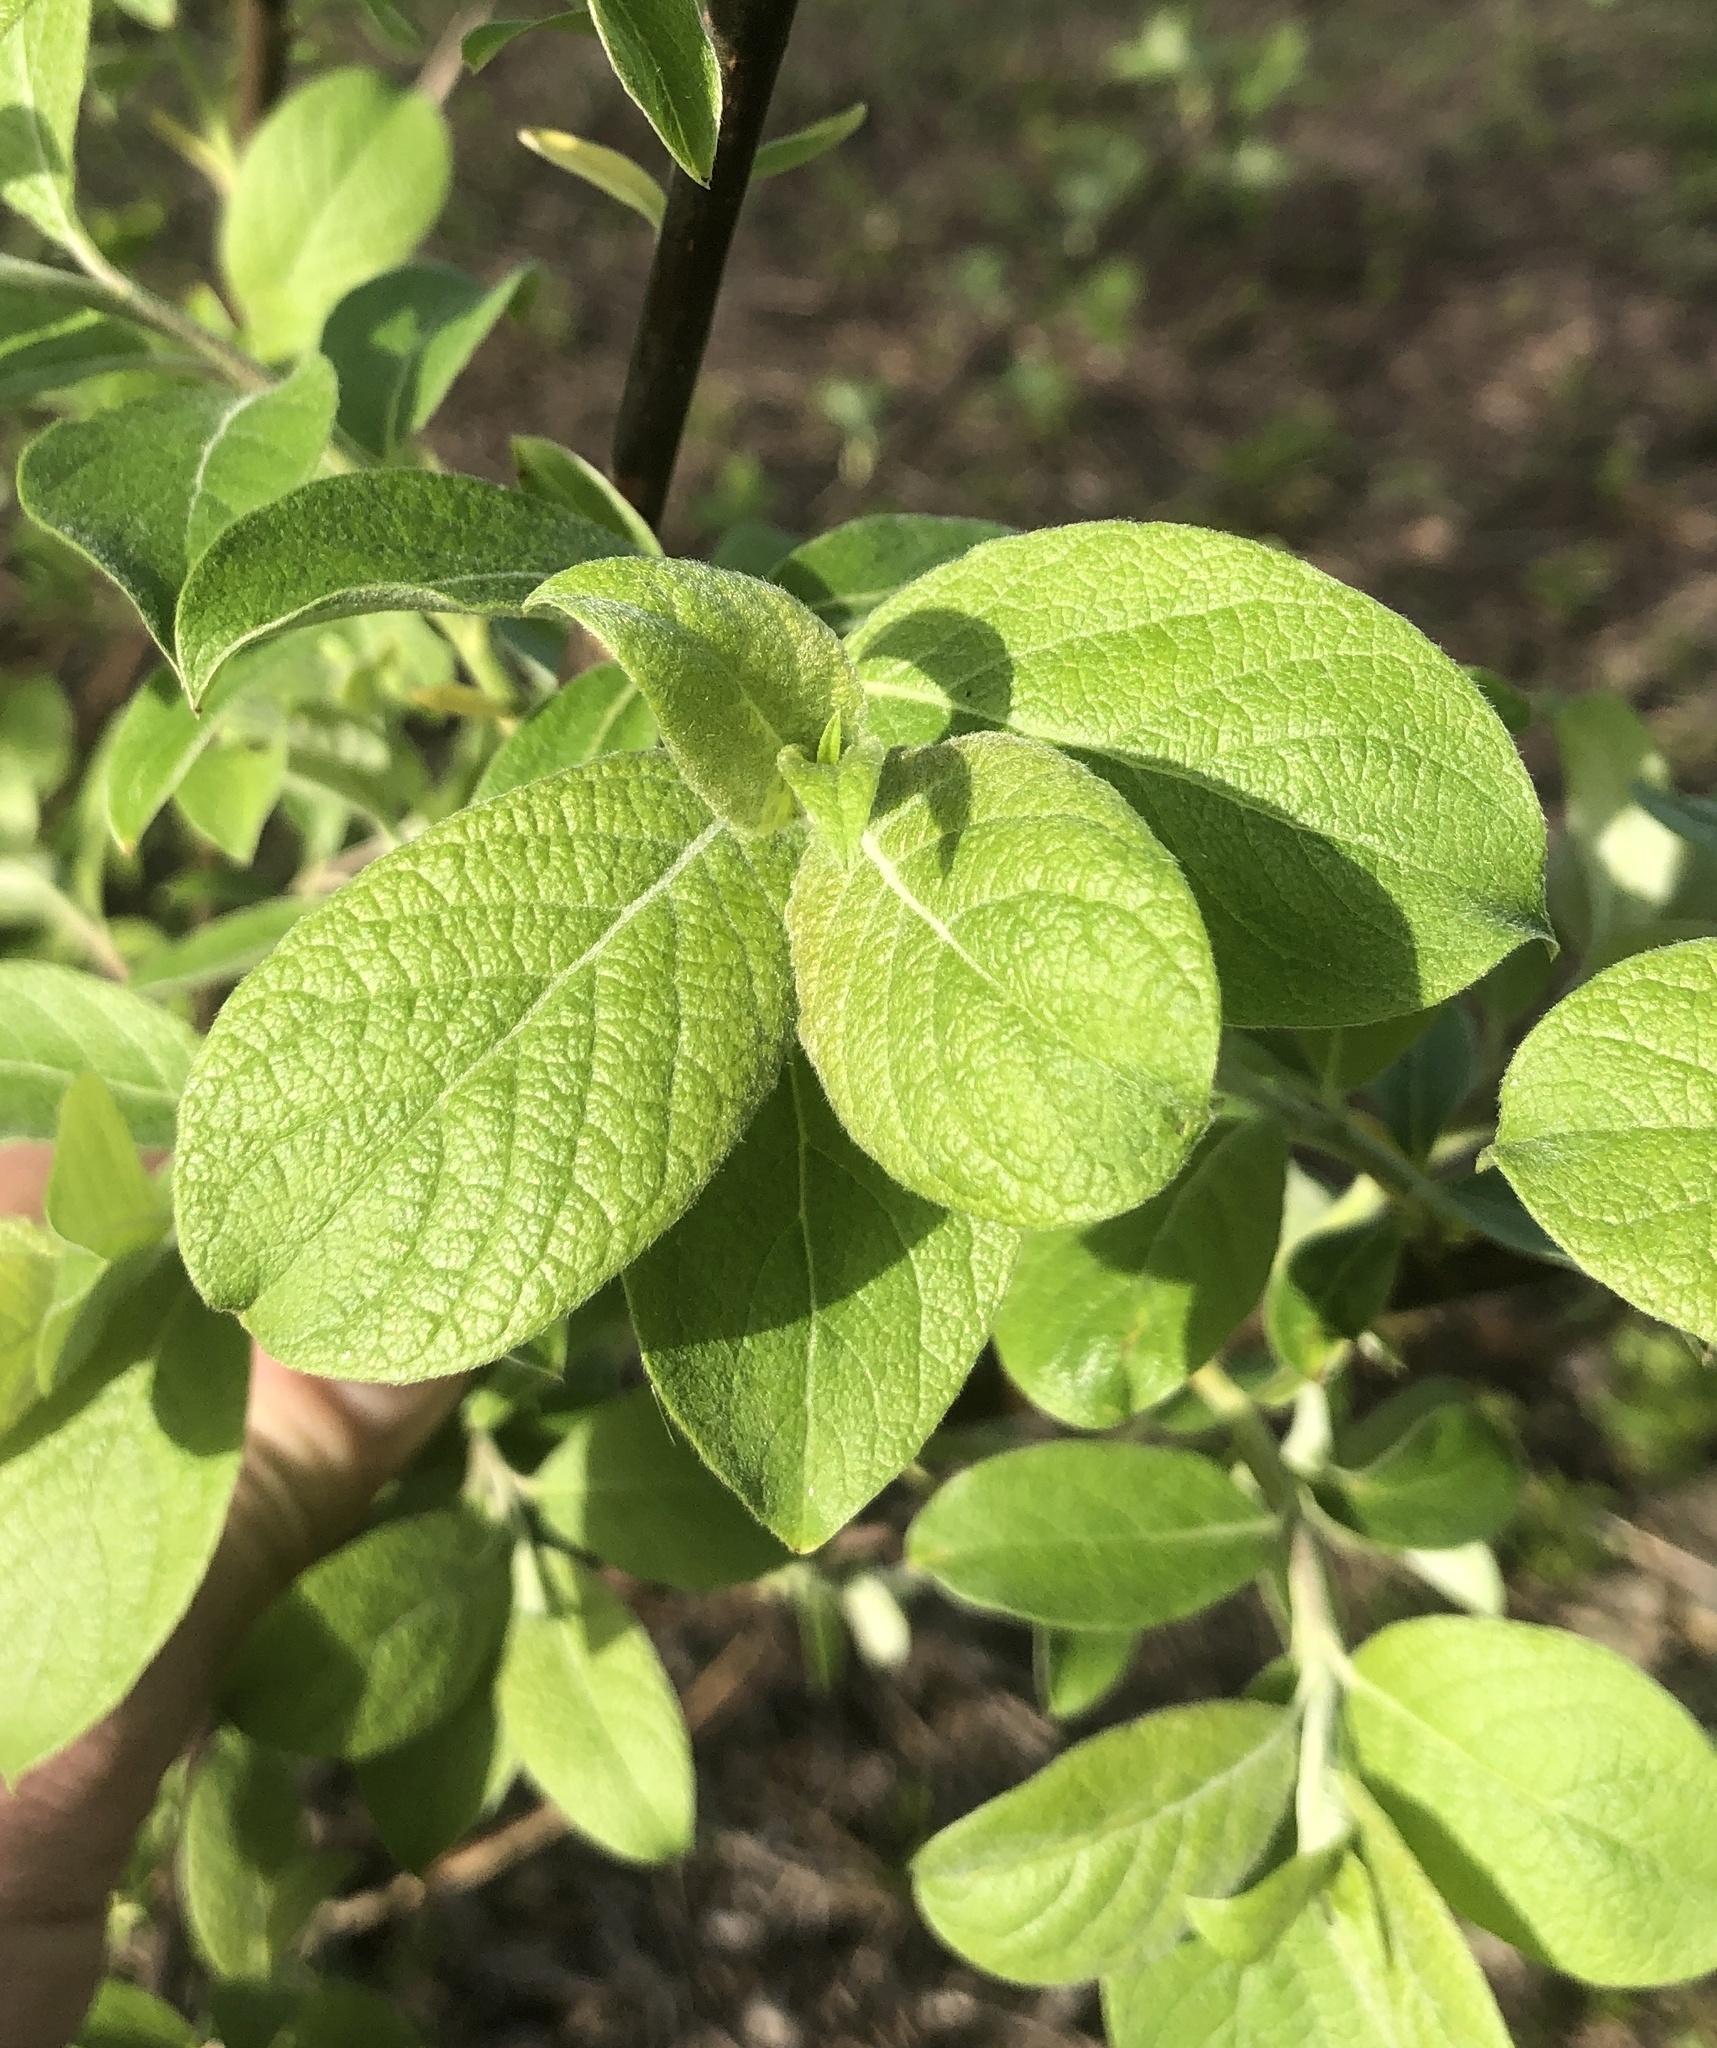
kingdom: Plantae
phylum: Tracheophyta
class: Magnoliopsida
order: Malpighiales
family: Salicaceae
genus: Salix
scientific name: Salix caprea
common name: Goat willow
